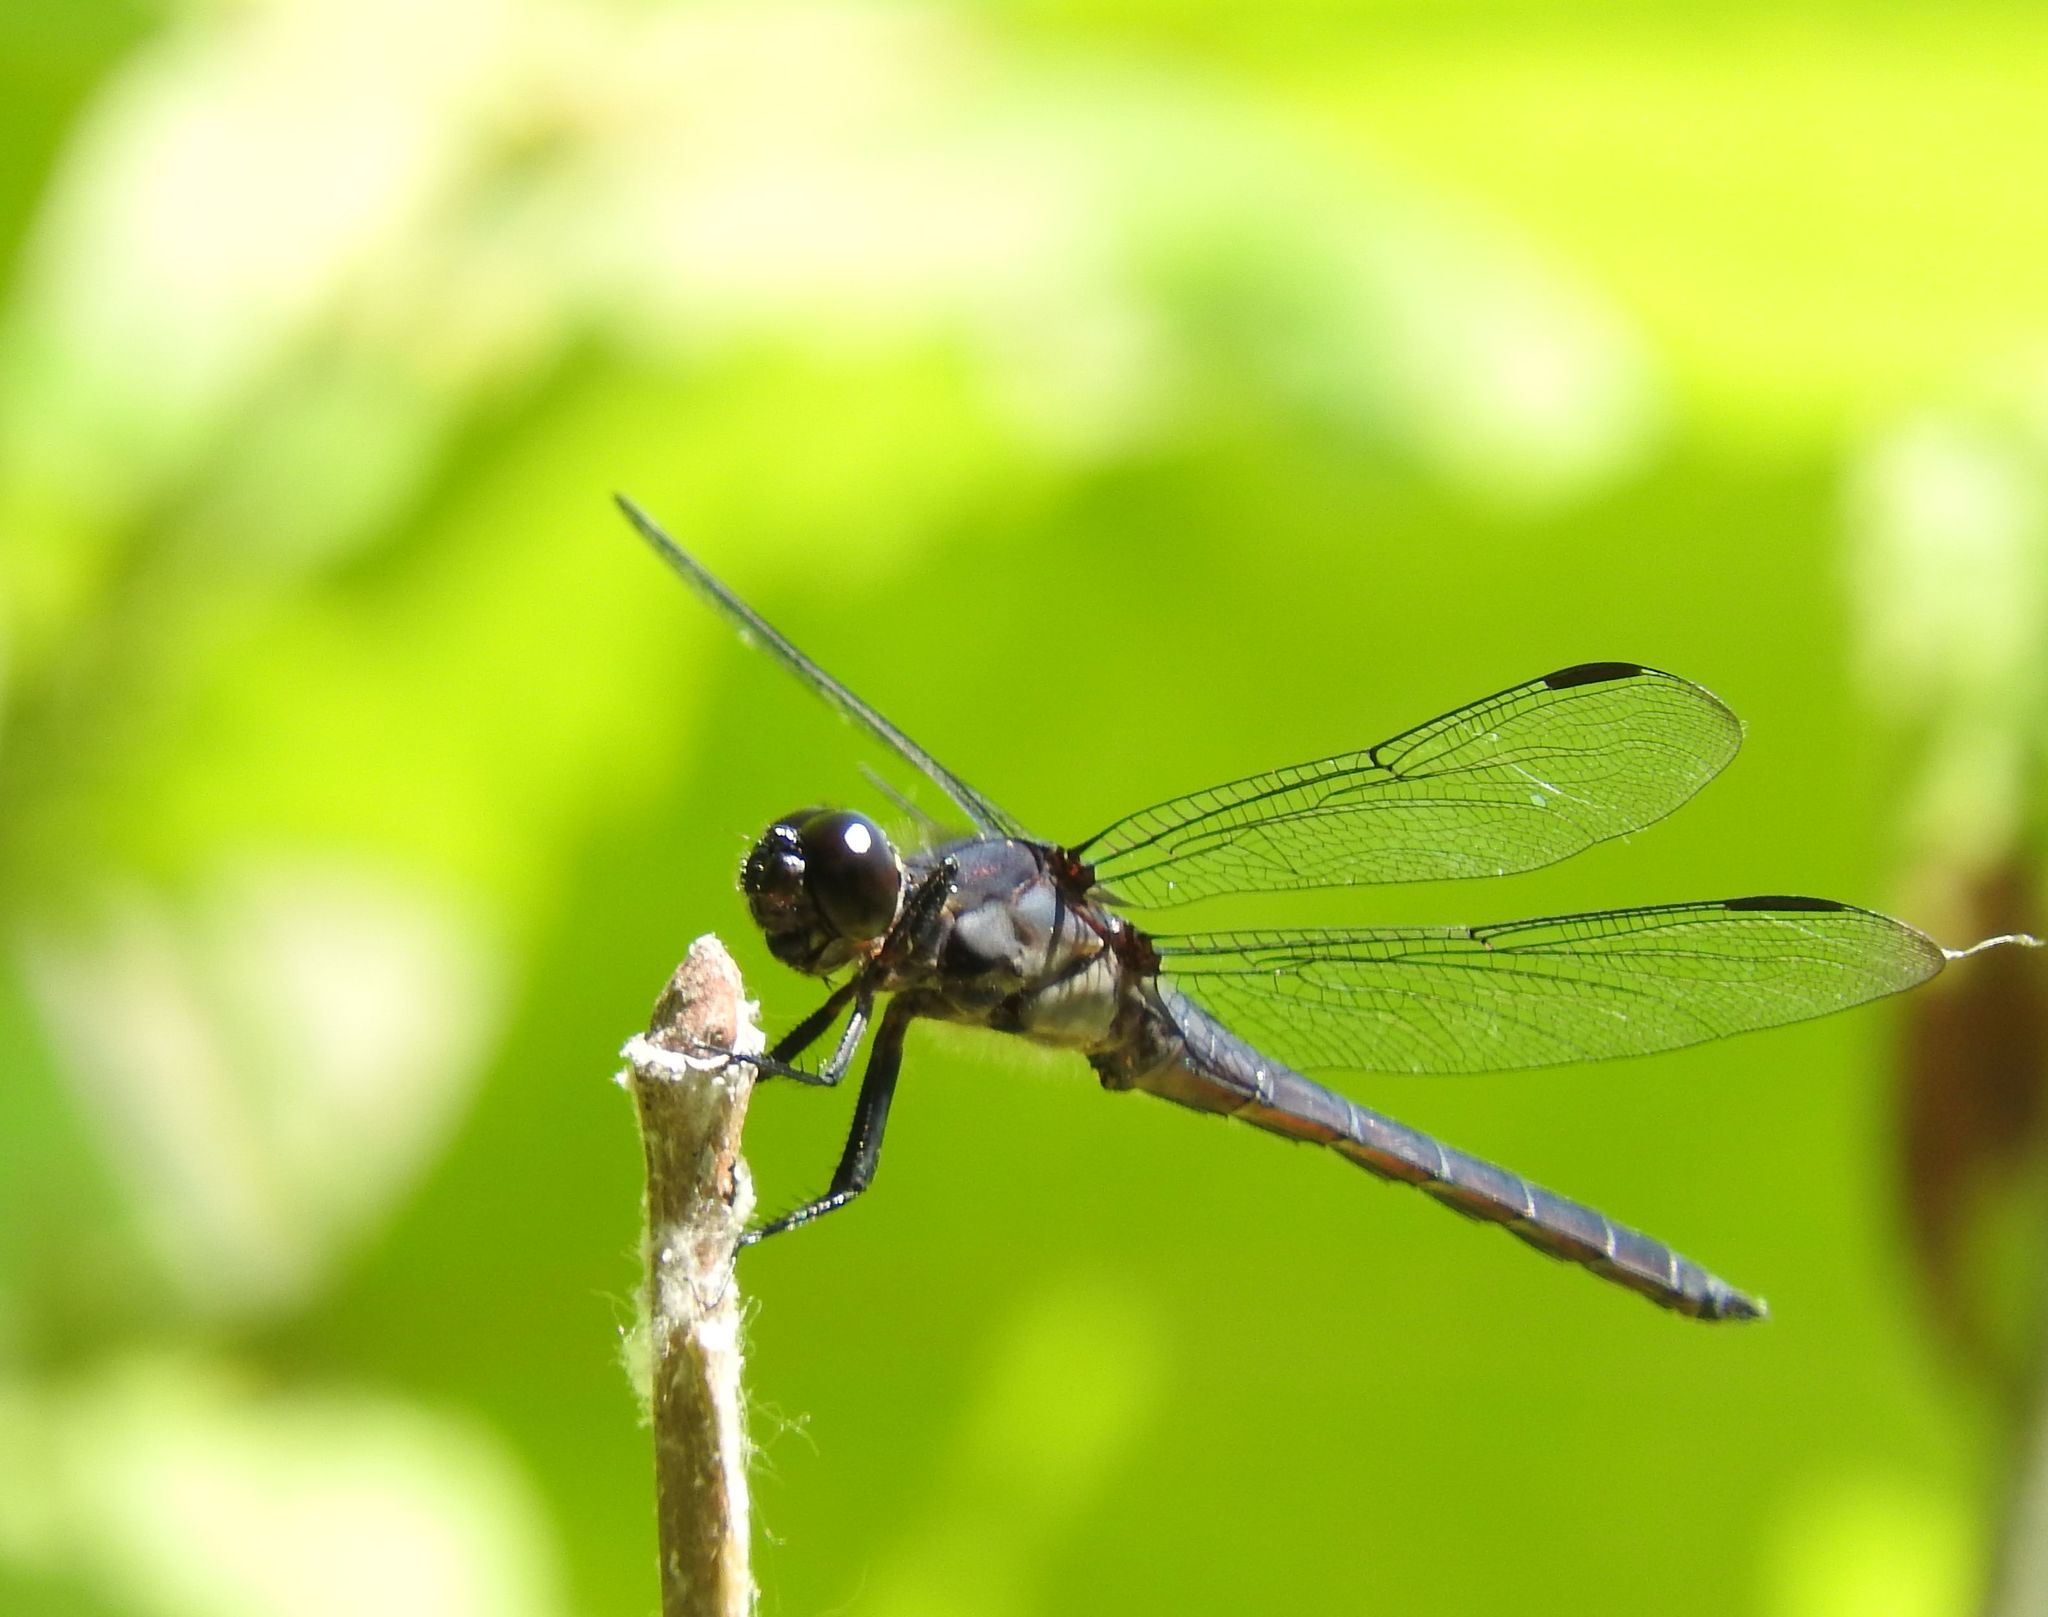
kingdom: Animalia
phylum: Arthropoda
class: Insecta
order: Odonata
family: Libellulidae
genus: Libellula
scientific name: Libellula incesta
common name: Slaty skimmer
